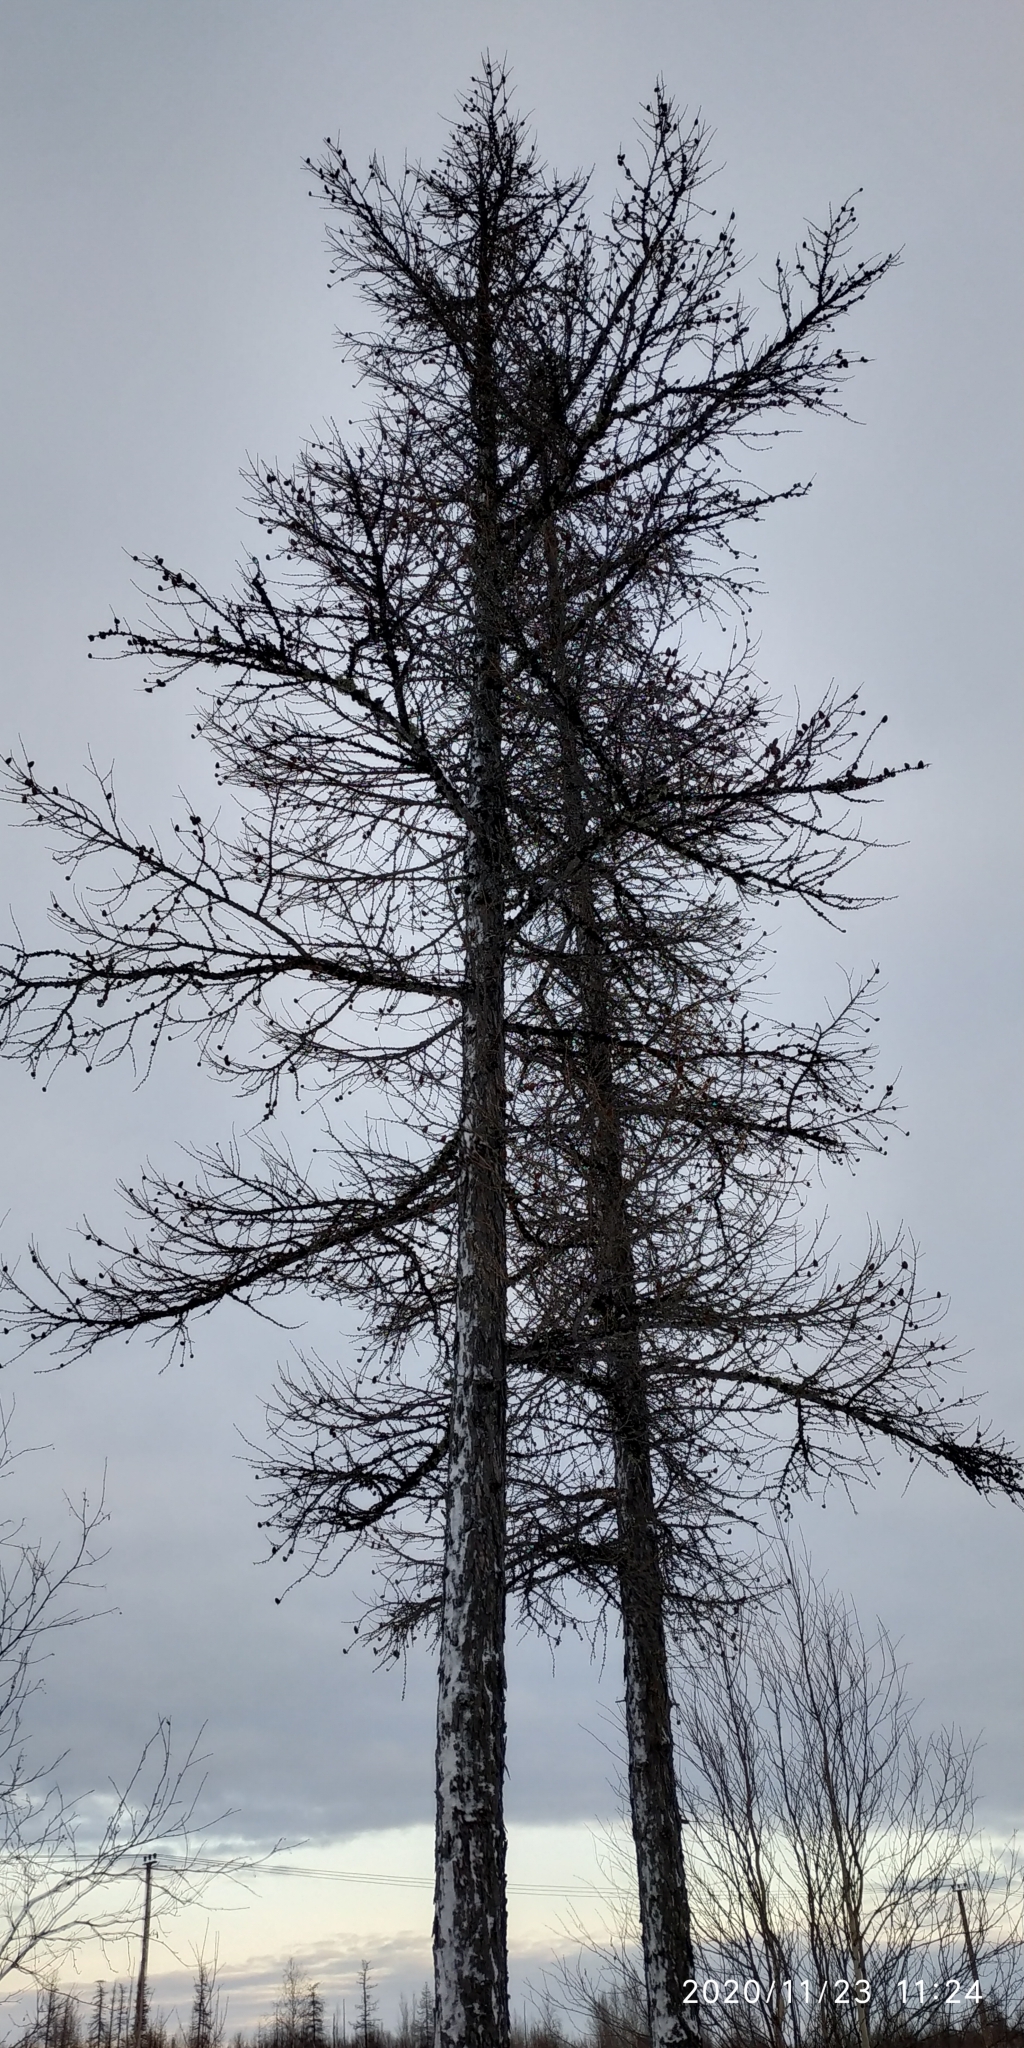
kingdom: Plantae
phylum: Tracheophyta
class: Pinopsida
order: Pinales
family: Pinaceae
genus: Larix
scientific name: Larix sibirica
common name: Siberian larch
